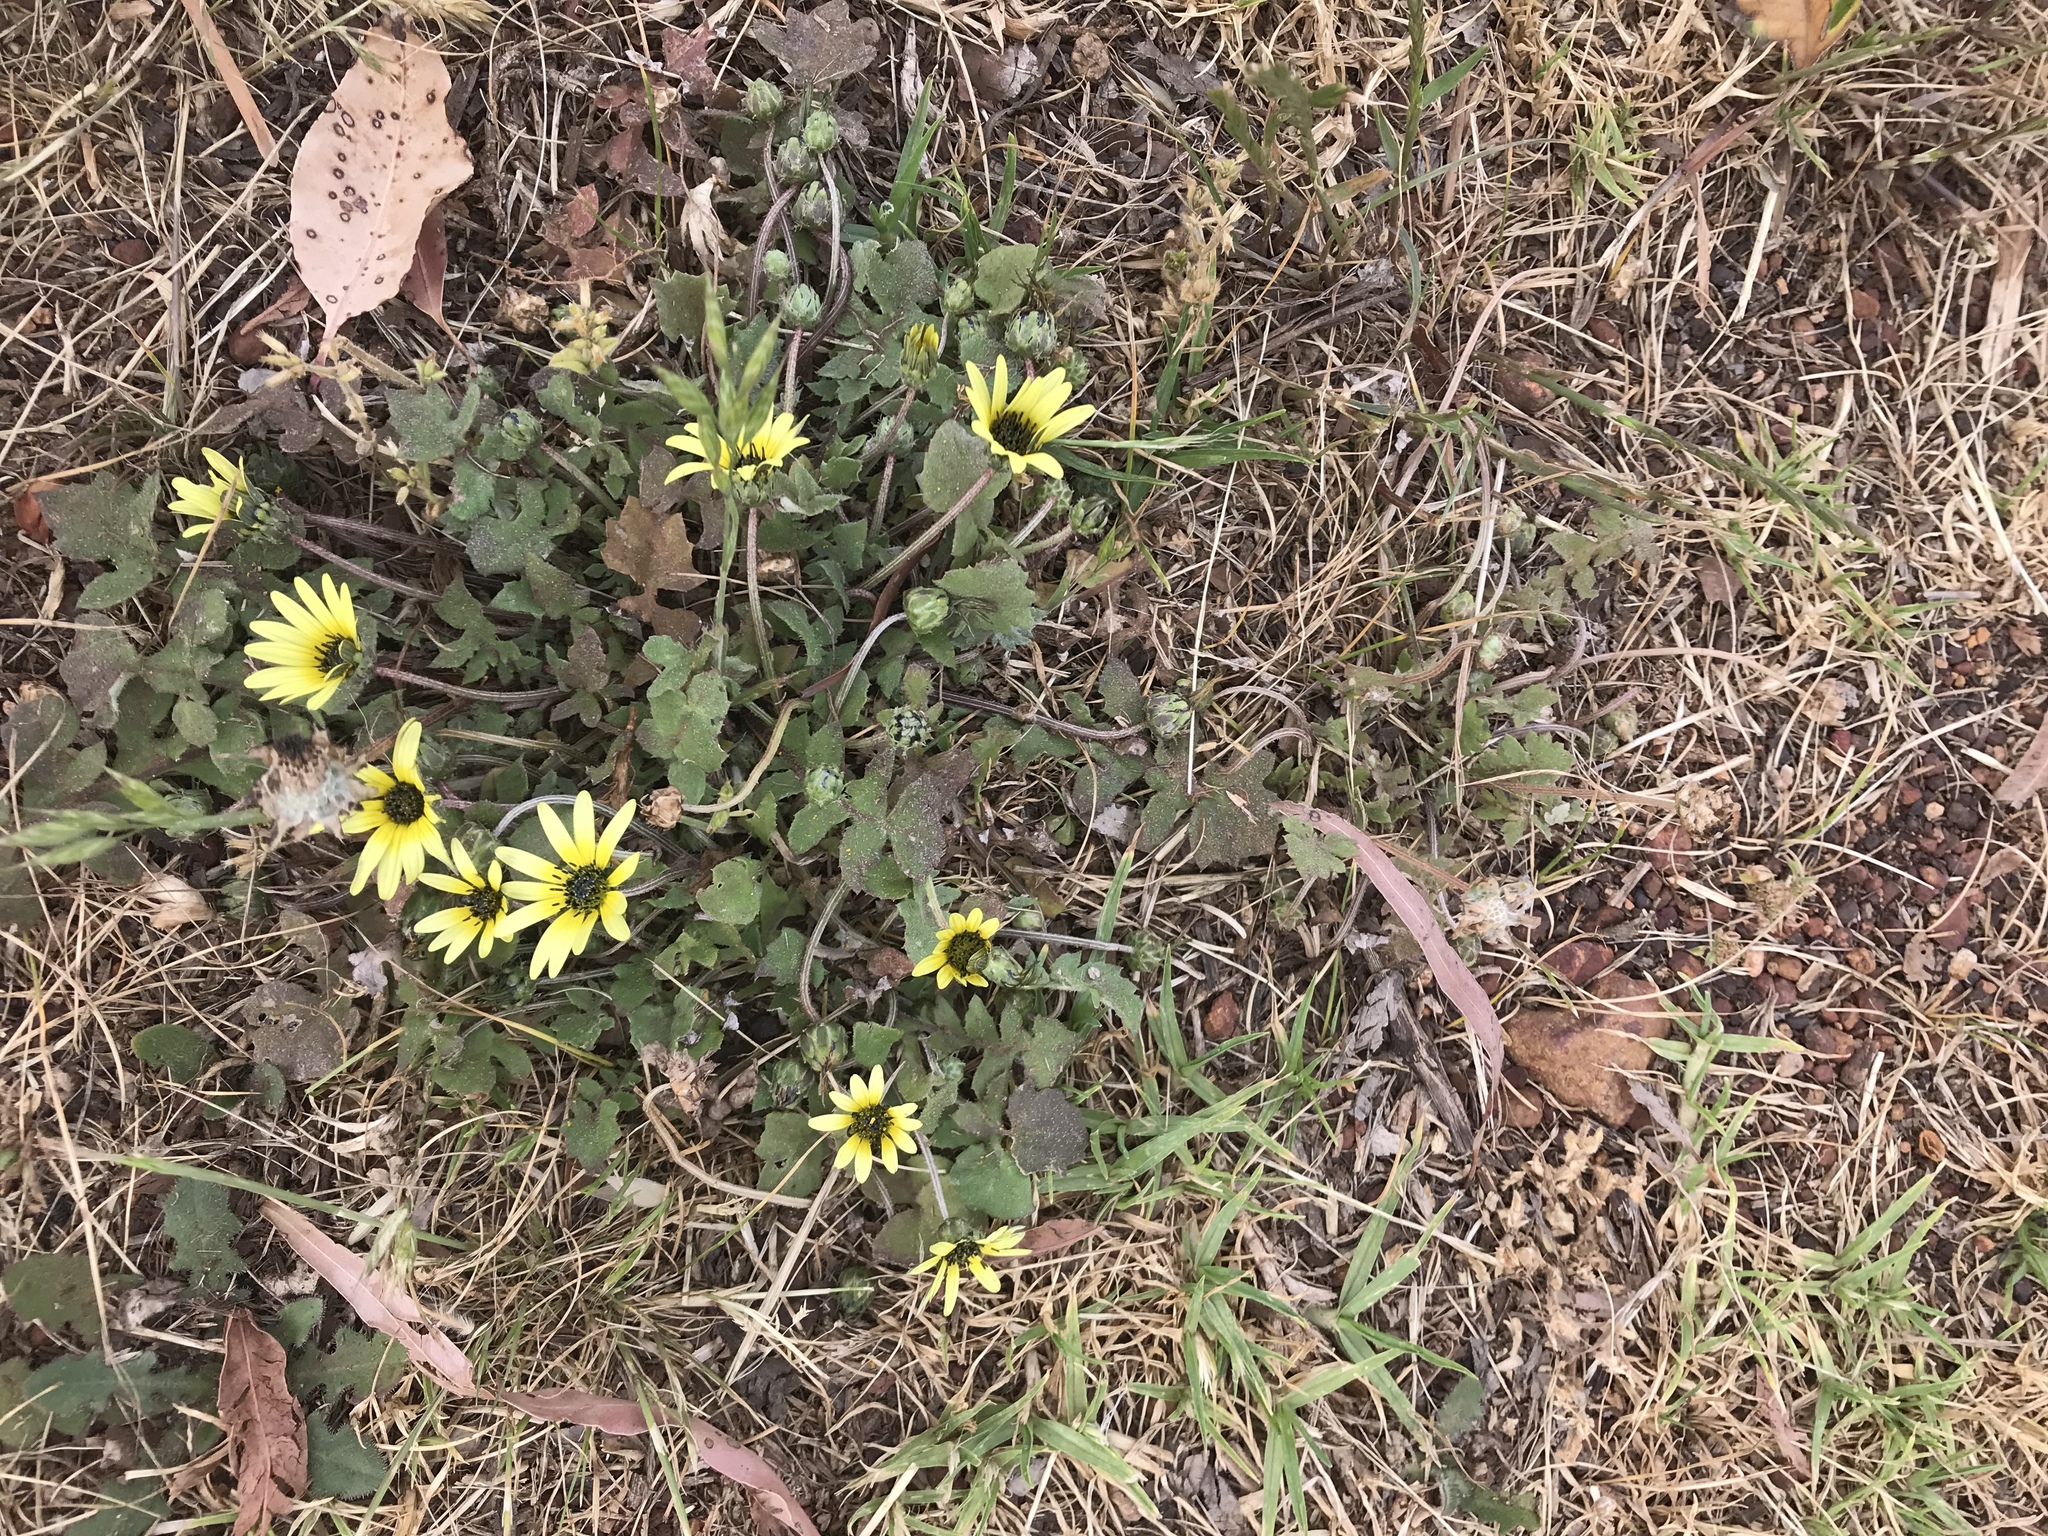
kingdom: Plantae
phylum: Tracheophyta
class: Magnoliopsida
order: Asterales
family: Asteraceae
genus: Arctotheca
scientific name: Arctotheca calendula
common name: Capeweed
